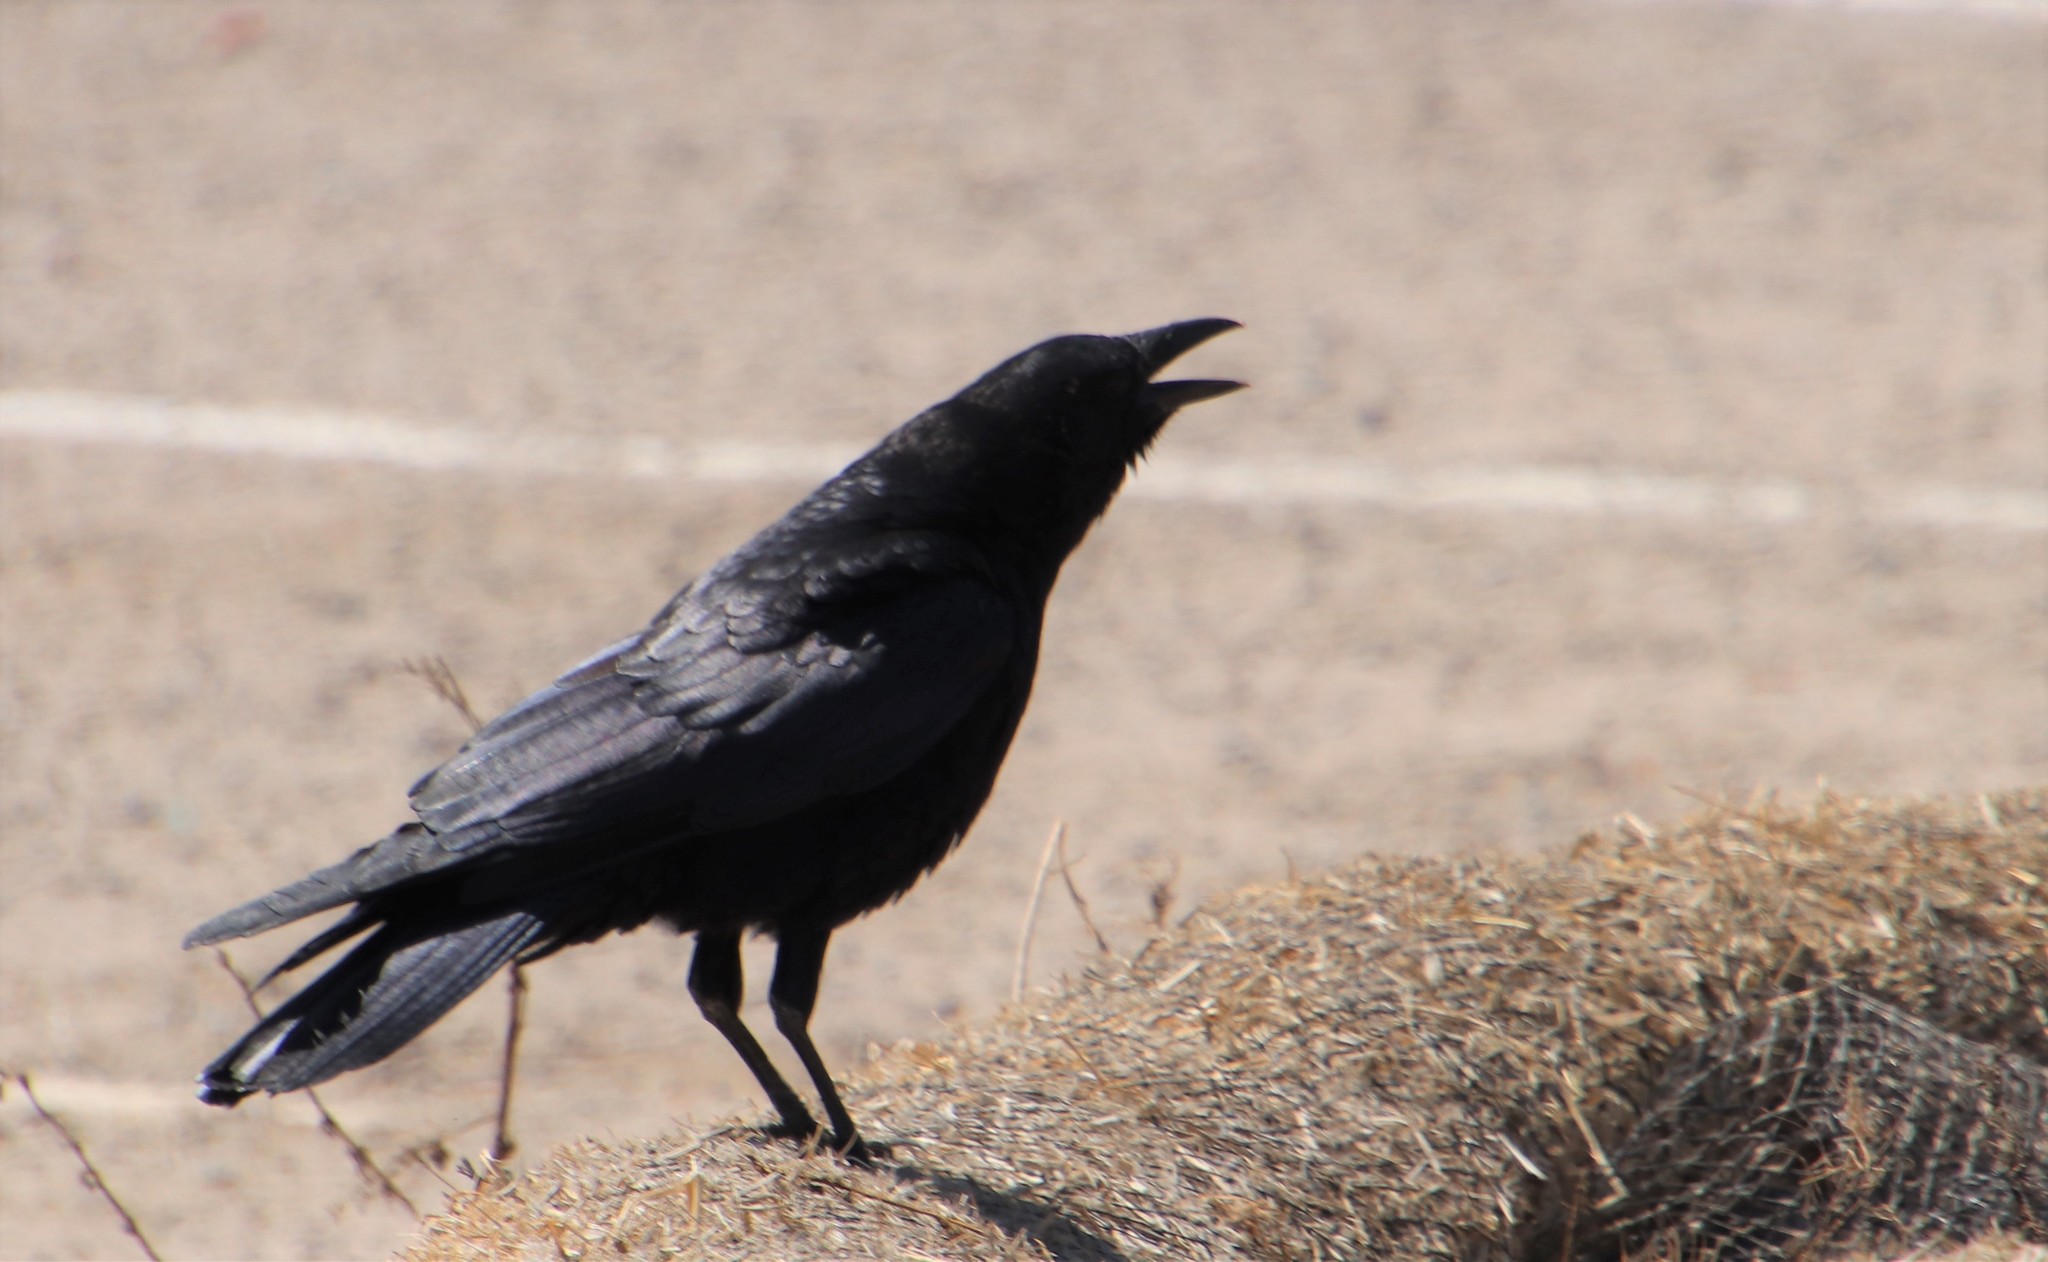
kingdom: Animalia
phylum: Chordata
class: Aves
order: Passeriformes
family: Corvidae
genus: Corvus
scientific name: Corvus brachyrhynchos
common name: American crow
